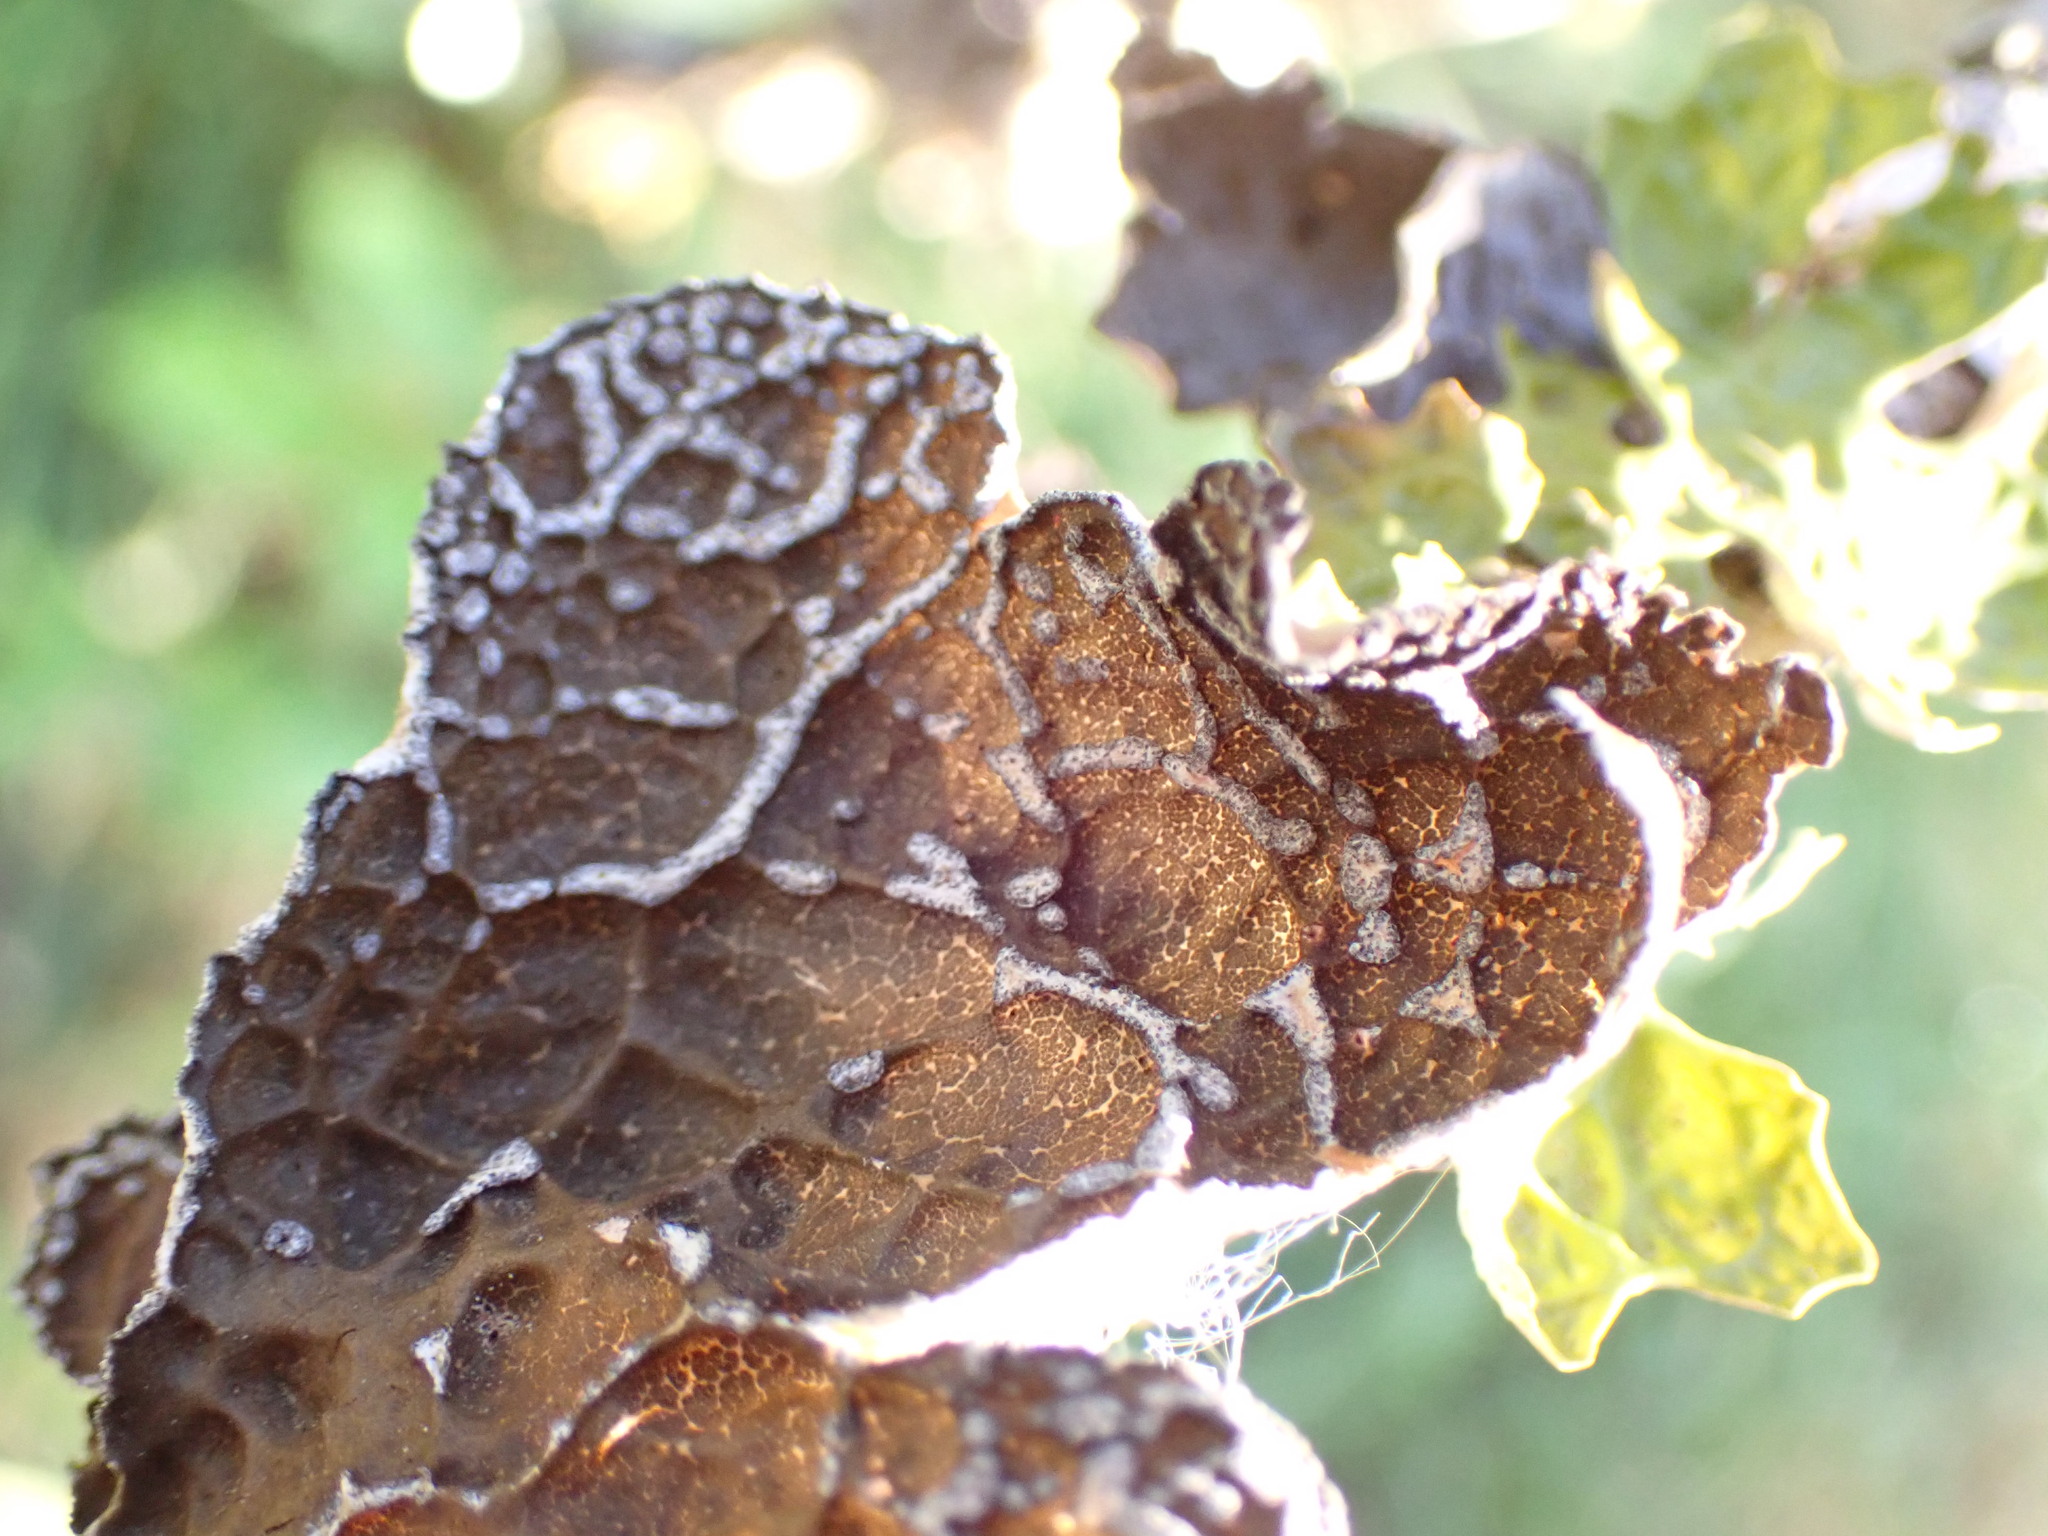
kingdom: Fungi
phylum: Ascomycota
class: Lecanoromycetes
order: Peltigerales
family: Lobariaceae
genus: Lobaria
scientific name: Lobaria anomala
